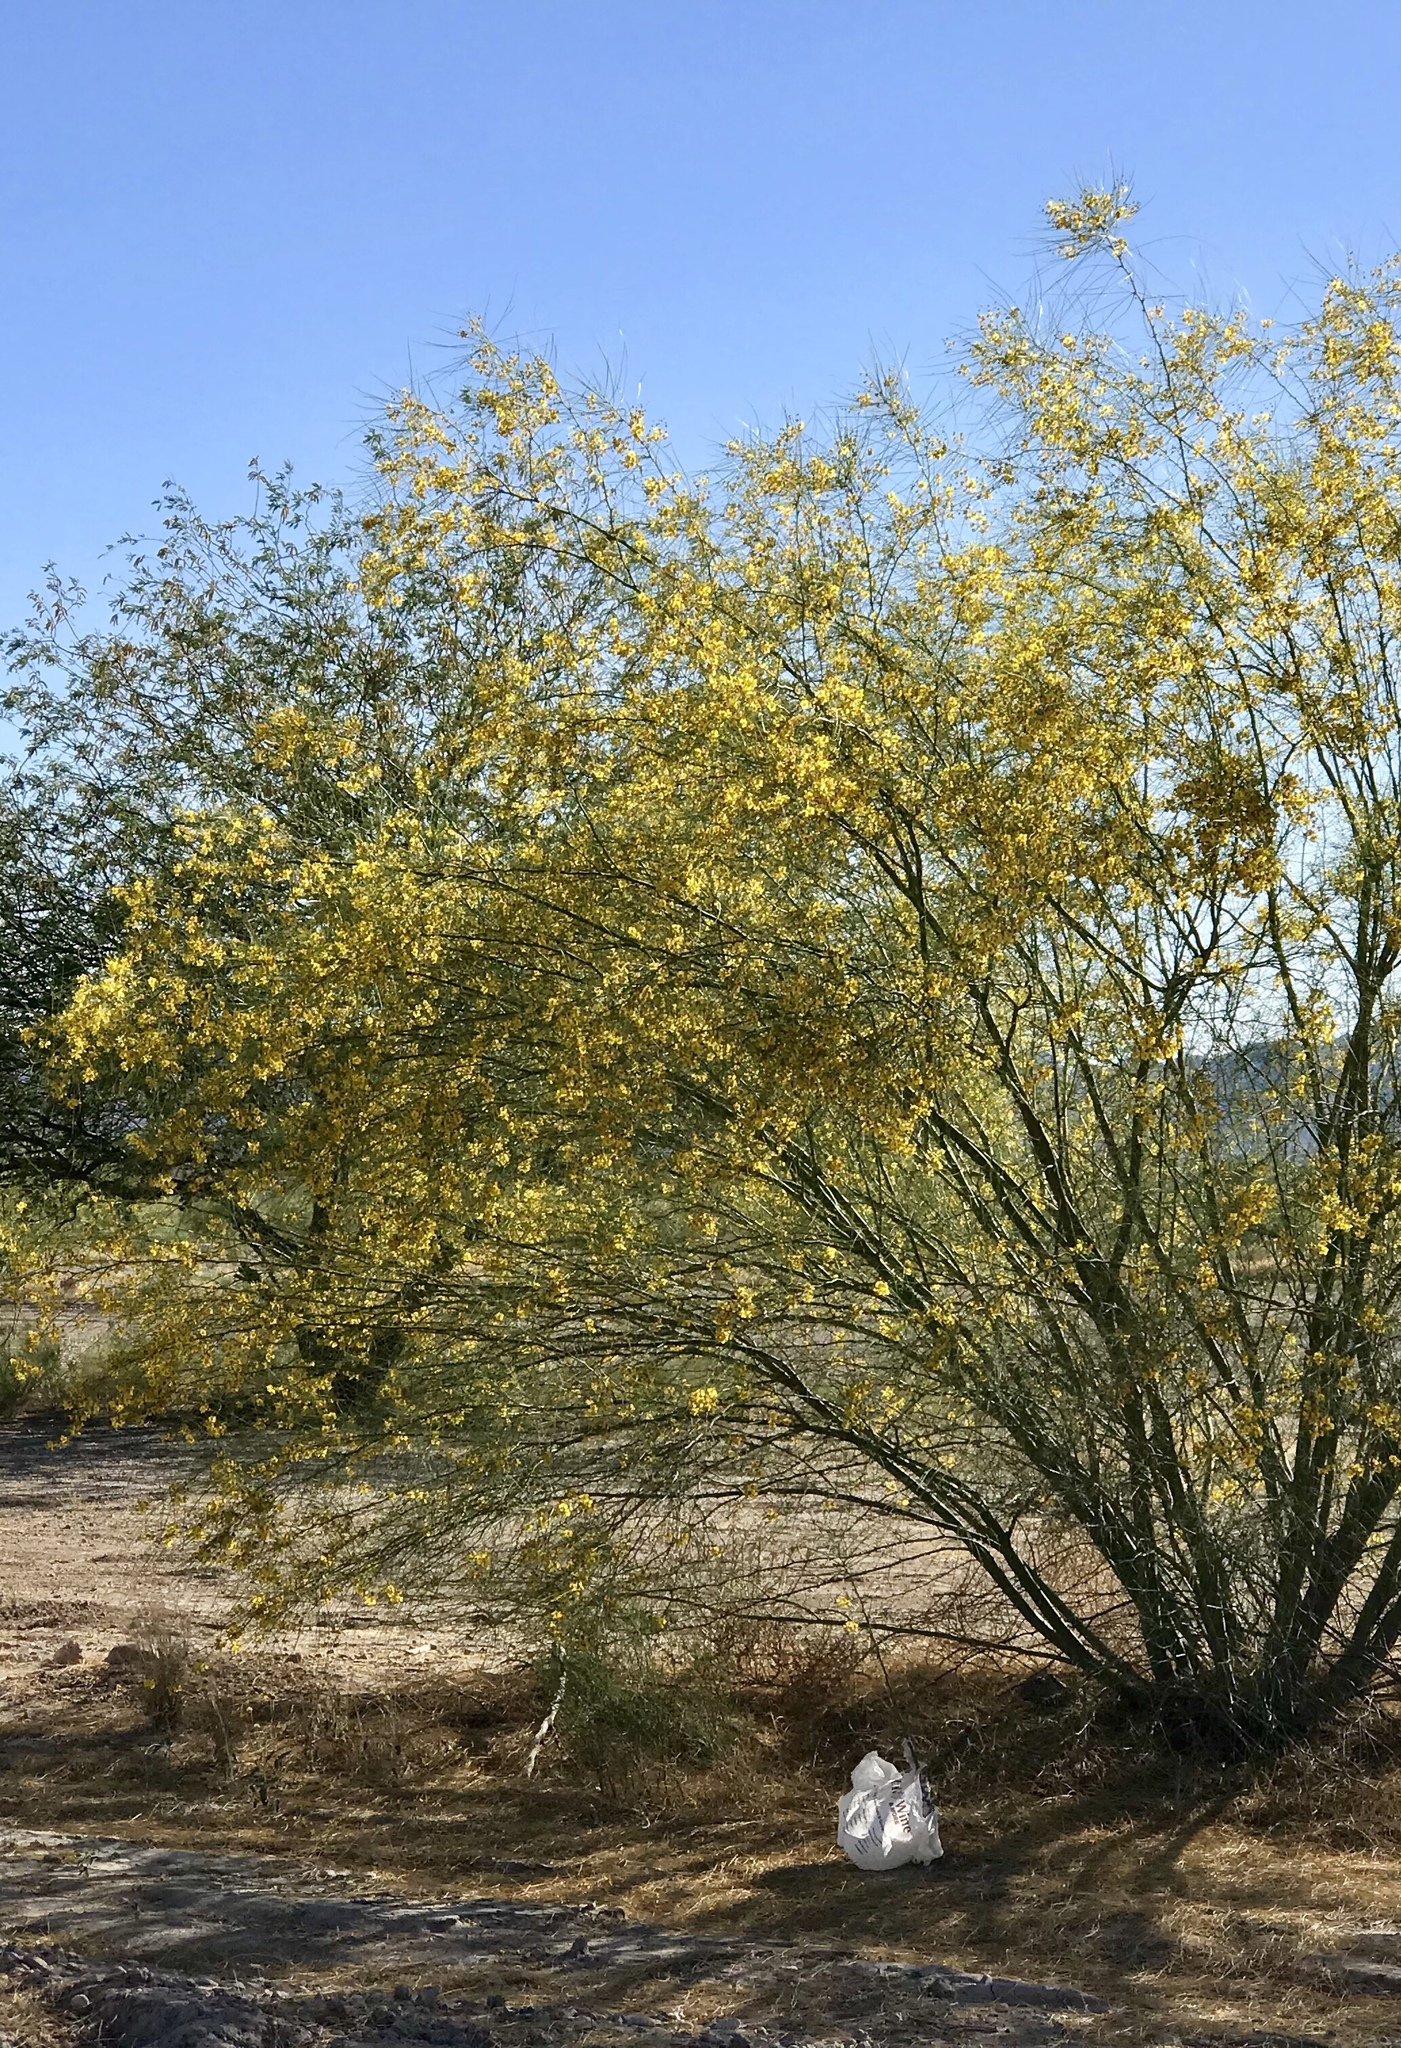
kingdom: Plantae
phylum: Tracheophyta
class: Magnoliopsida
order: Fabales
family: Fabaceae
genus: Parkinsonia
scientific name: Parkinsonia aculeata
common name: Jerusalem thorn
